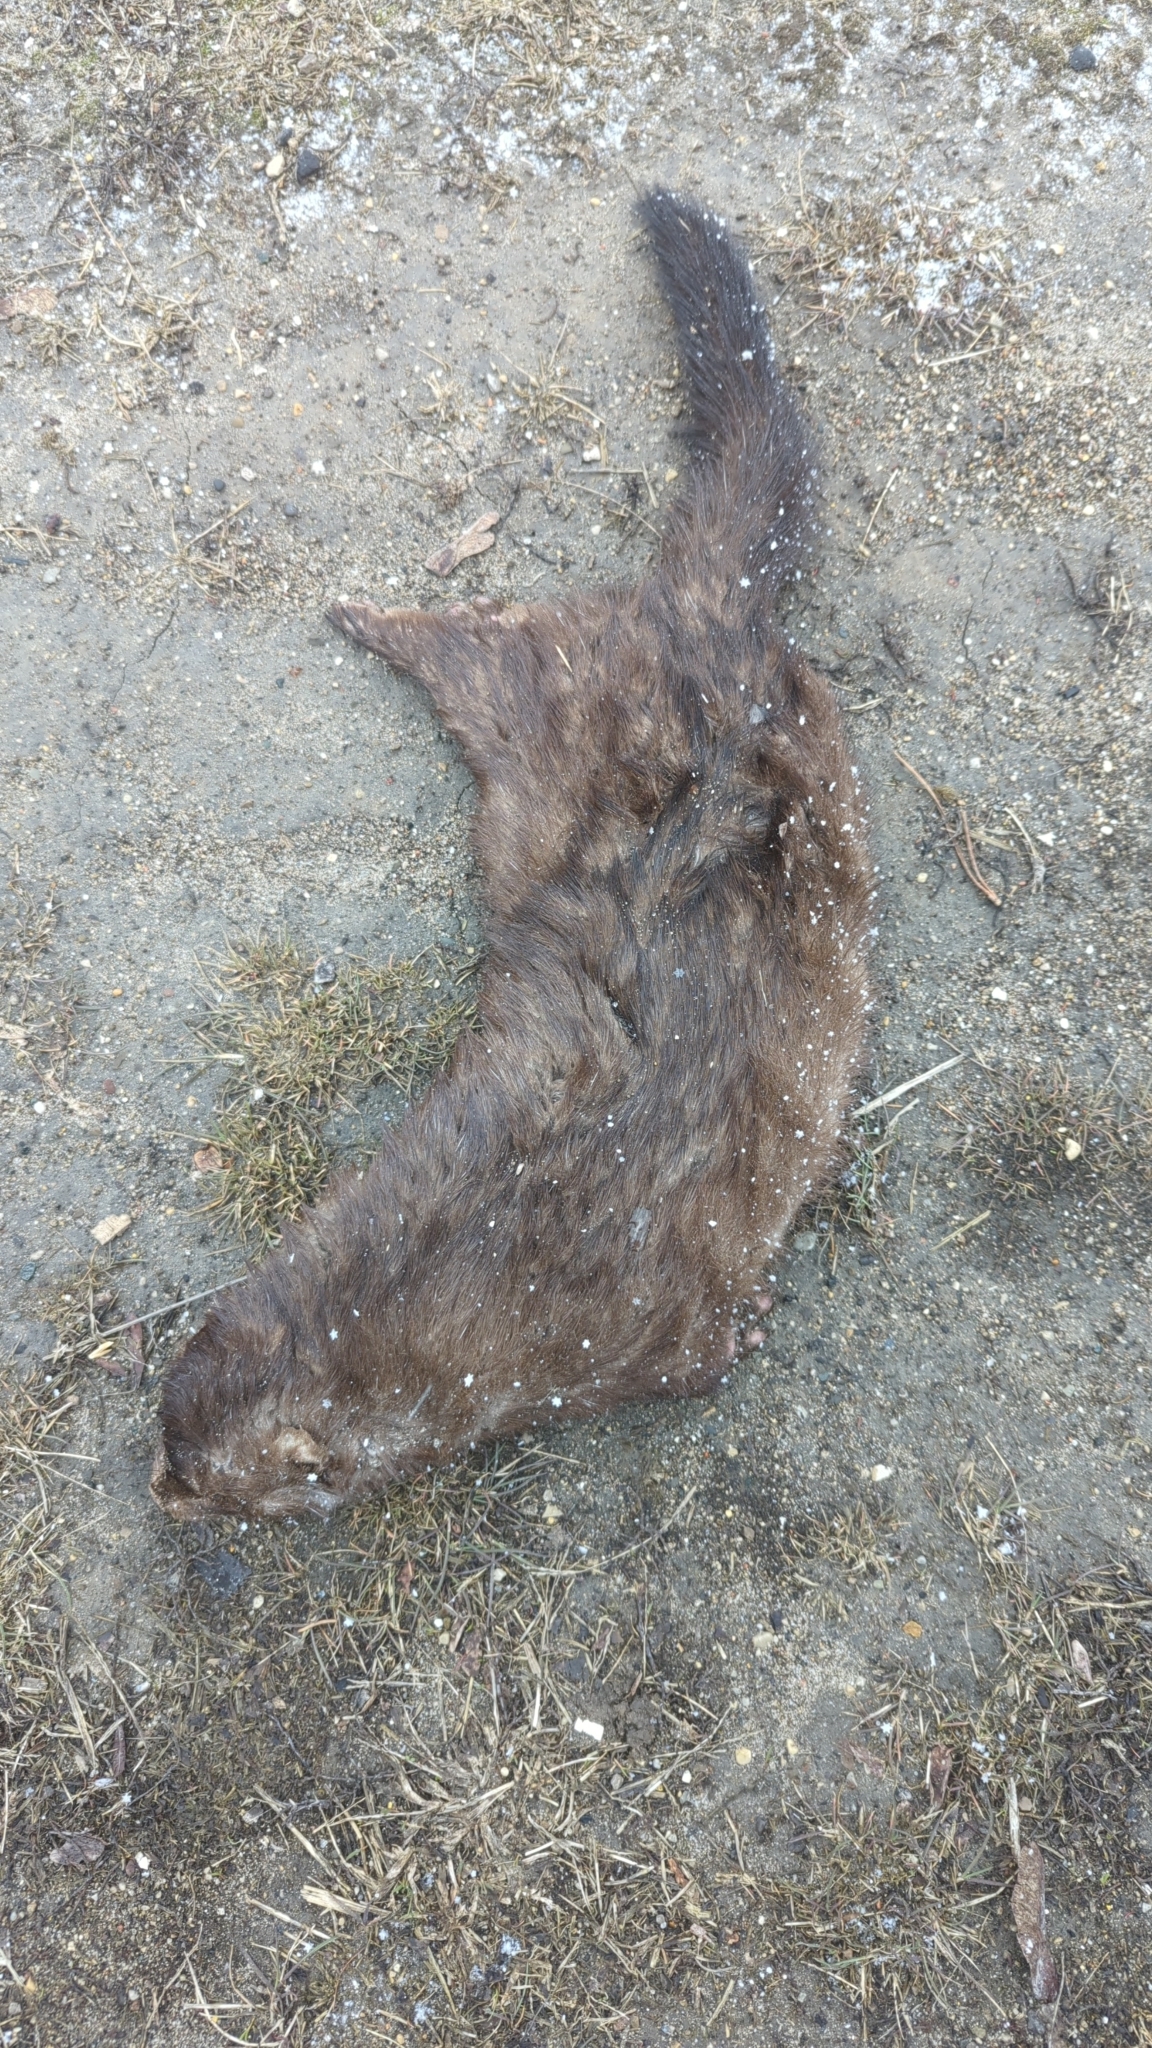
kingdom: Animalia
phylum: Chordata
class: Mammalia
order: Carnivora
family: Mustelidae
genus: Mustela
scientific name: Mustela
